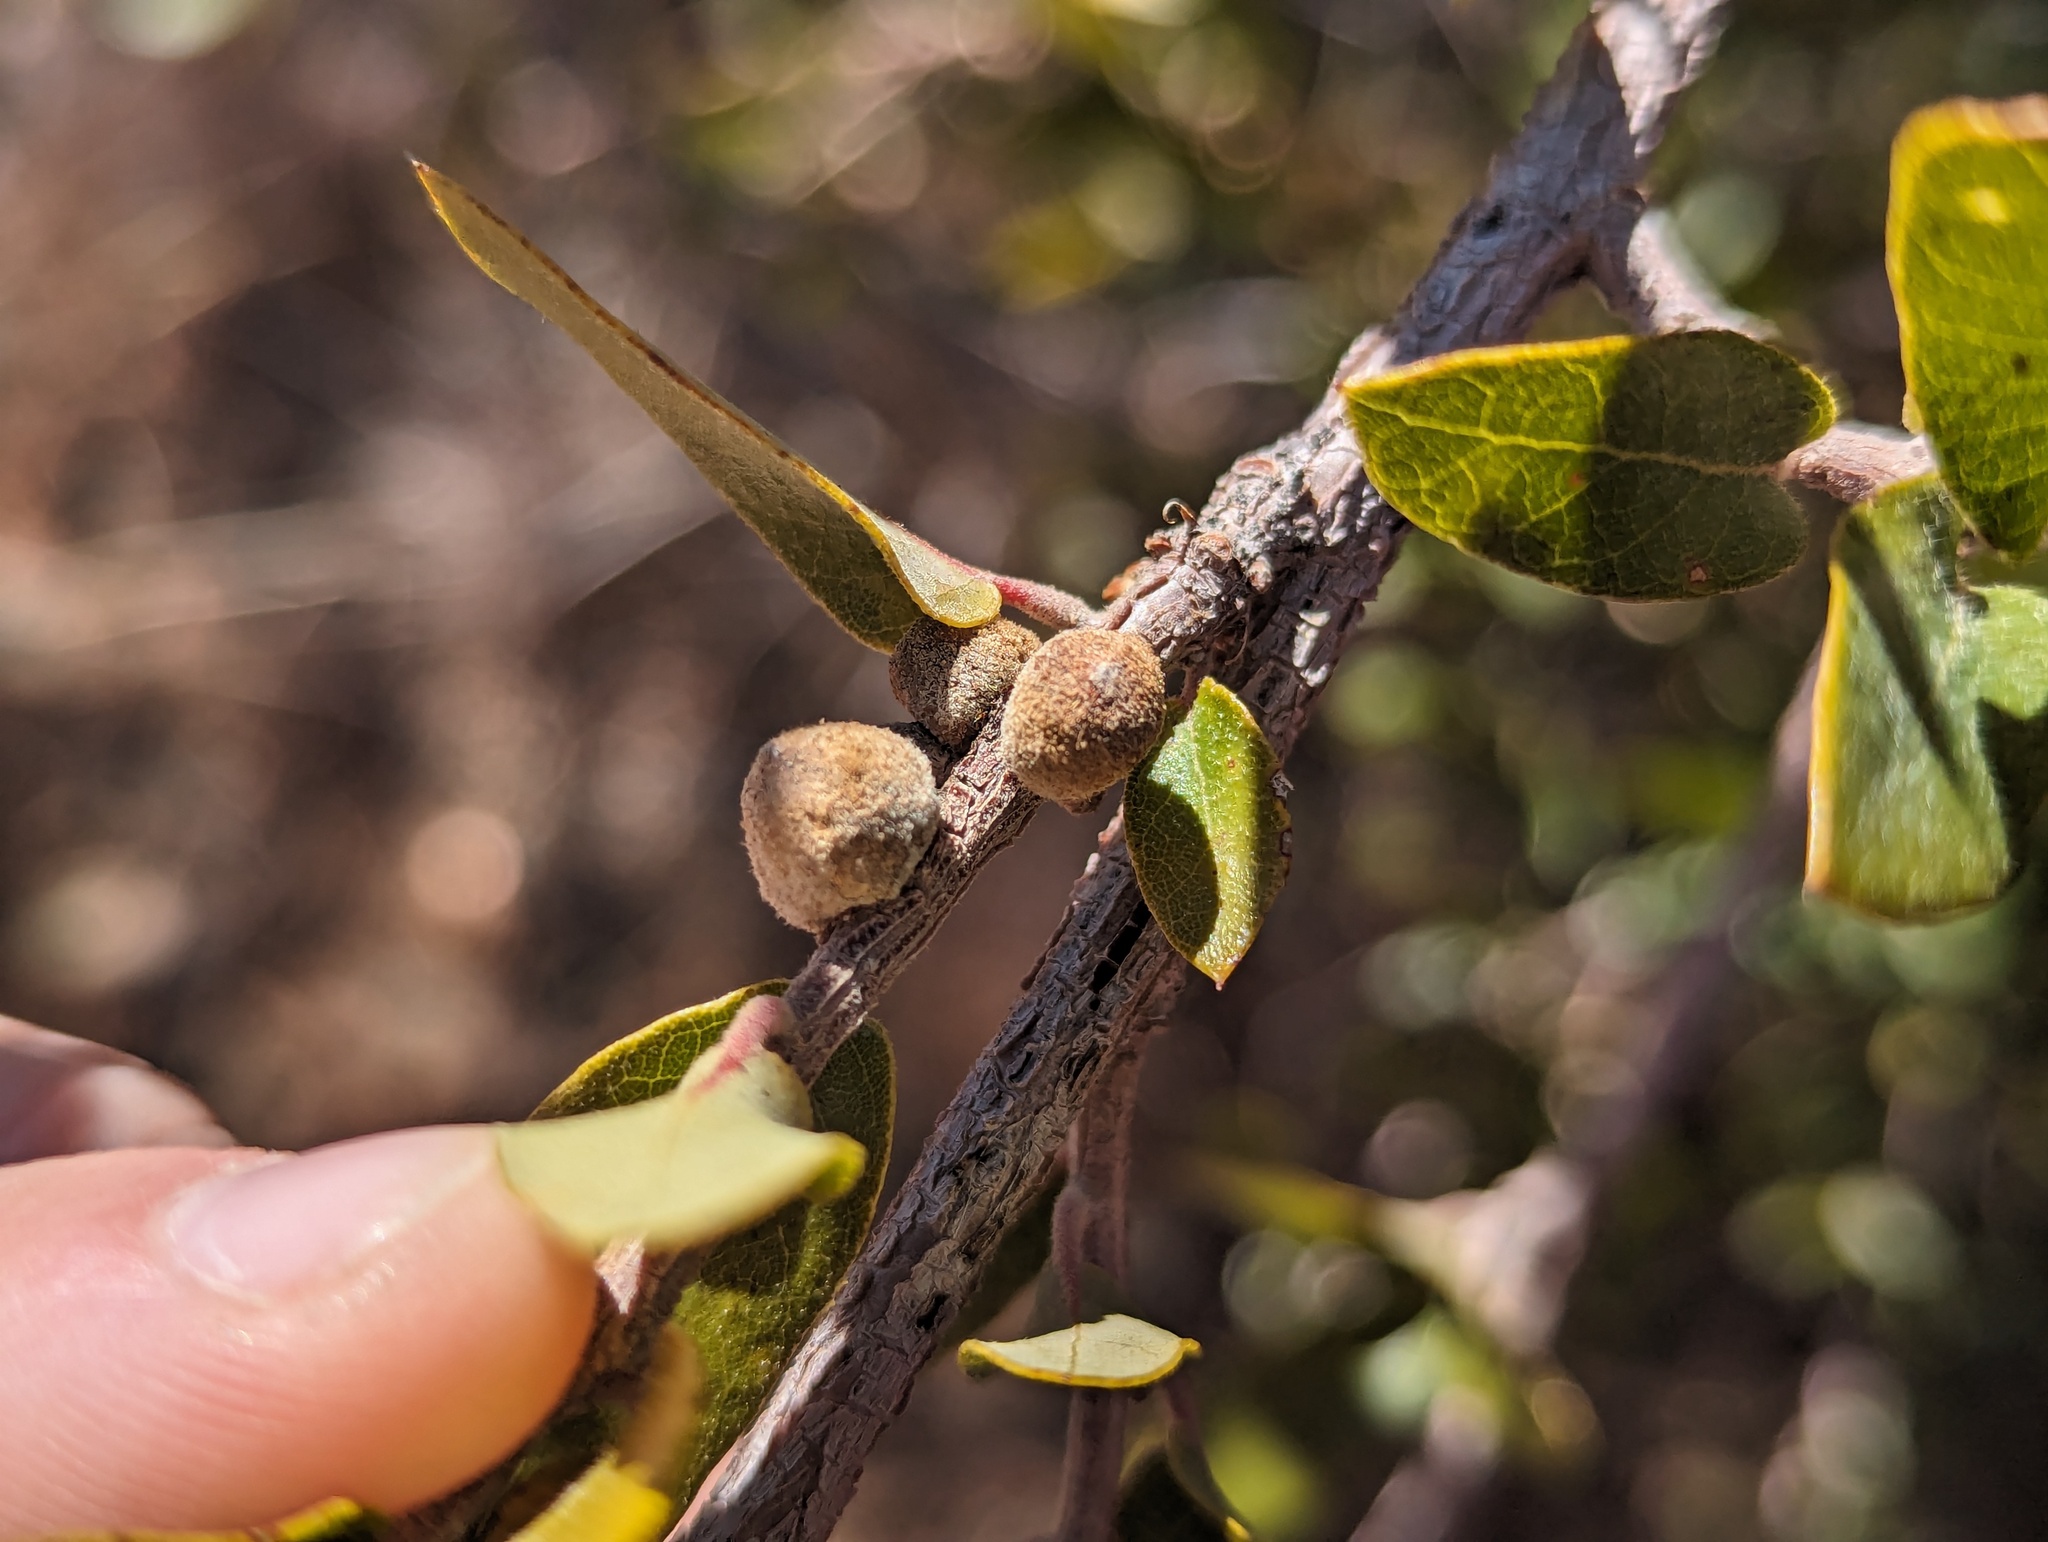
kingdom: Animalia
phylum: Arthropoda
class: Insecta
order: Hymenoptera
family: Cynipidae
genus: Disholcaspis
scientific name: Disholcaspis
